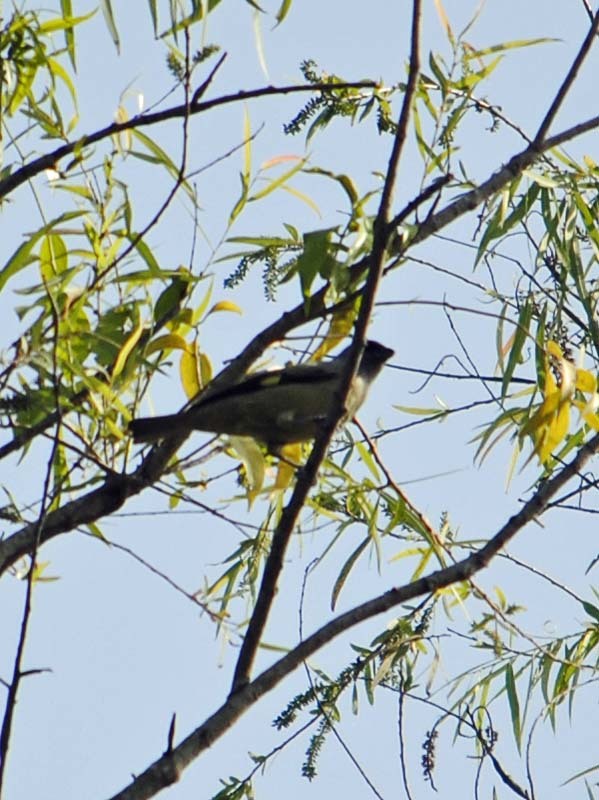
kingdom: Animalia
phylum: Chordata
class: Aves
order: Passeriformes
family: Thraupidae
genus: Thraupis
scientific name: Thraupis abbas
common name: Yellow-winged tanager
